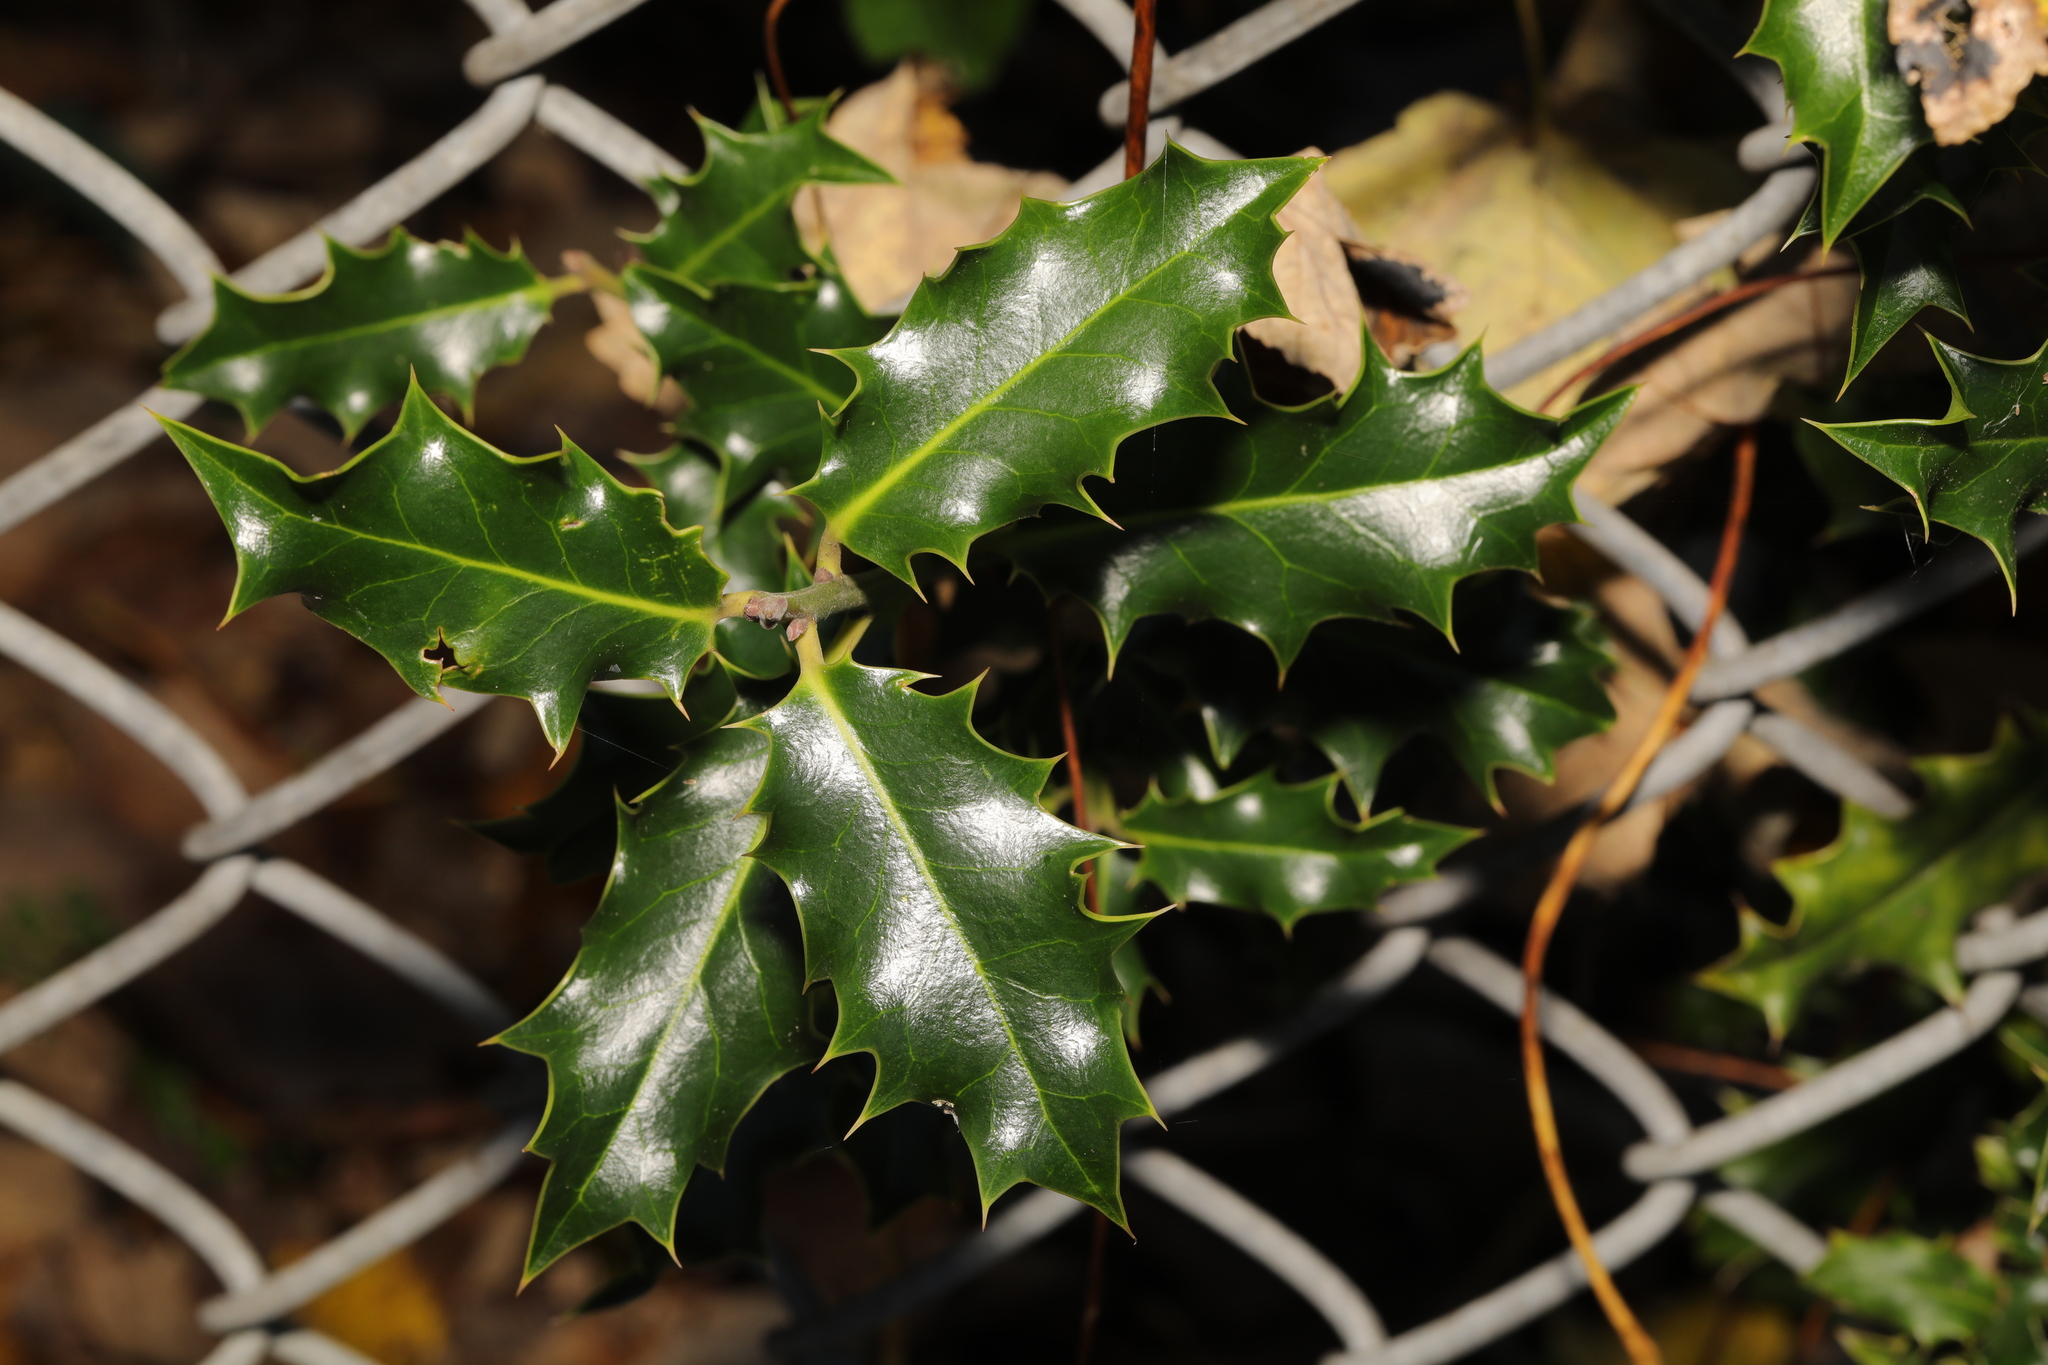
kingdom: Plantae
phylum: Tracheophyta
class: Magnoliopsida
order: Aquifoliales
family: Aquifoliaceae
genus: Ilex
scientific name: Ilex aquifolium
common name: English holly
